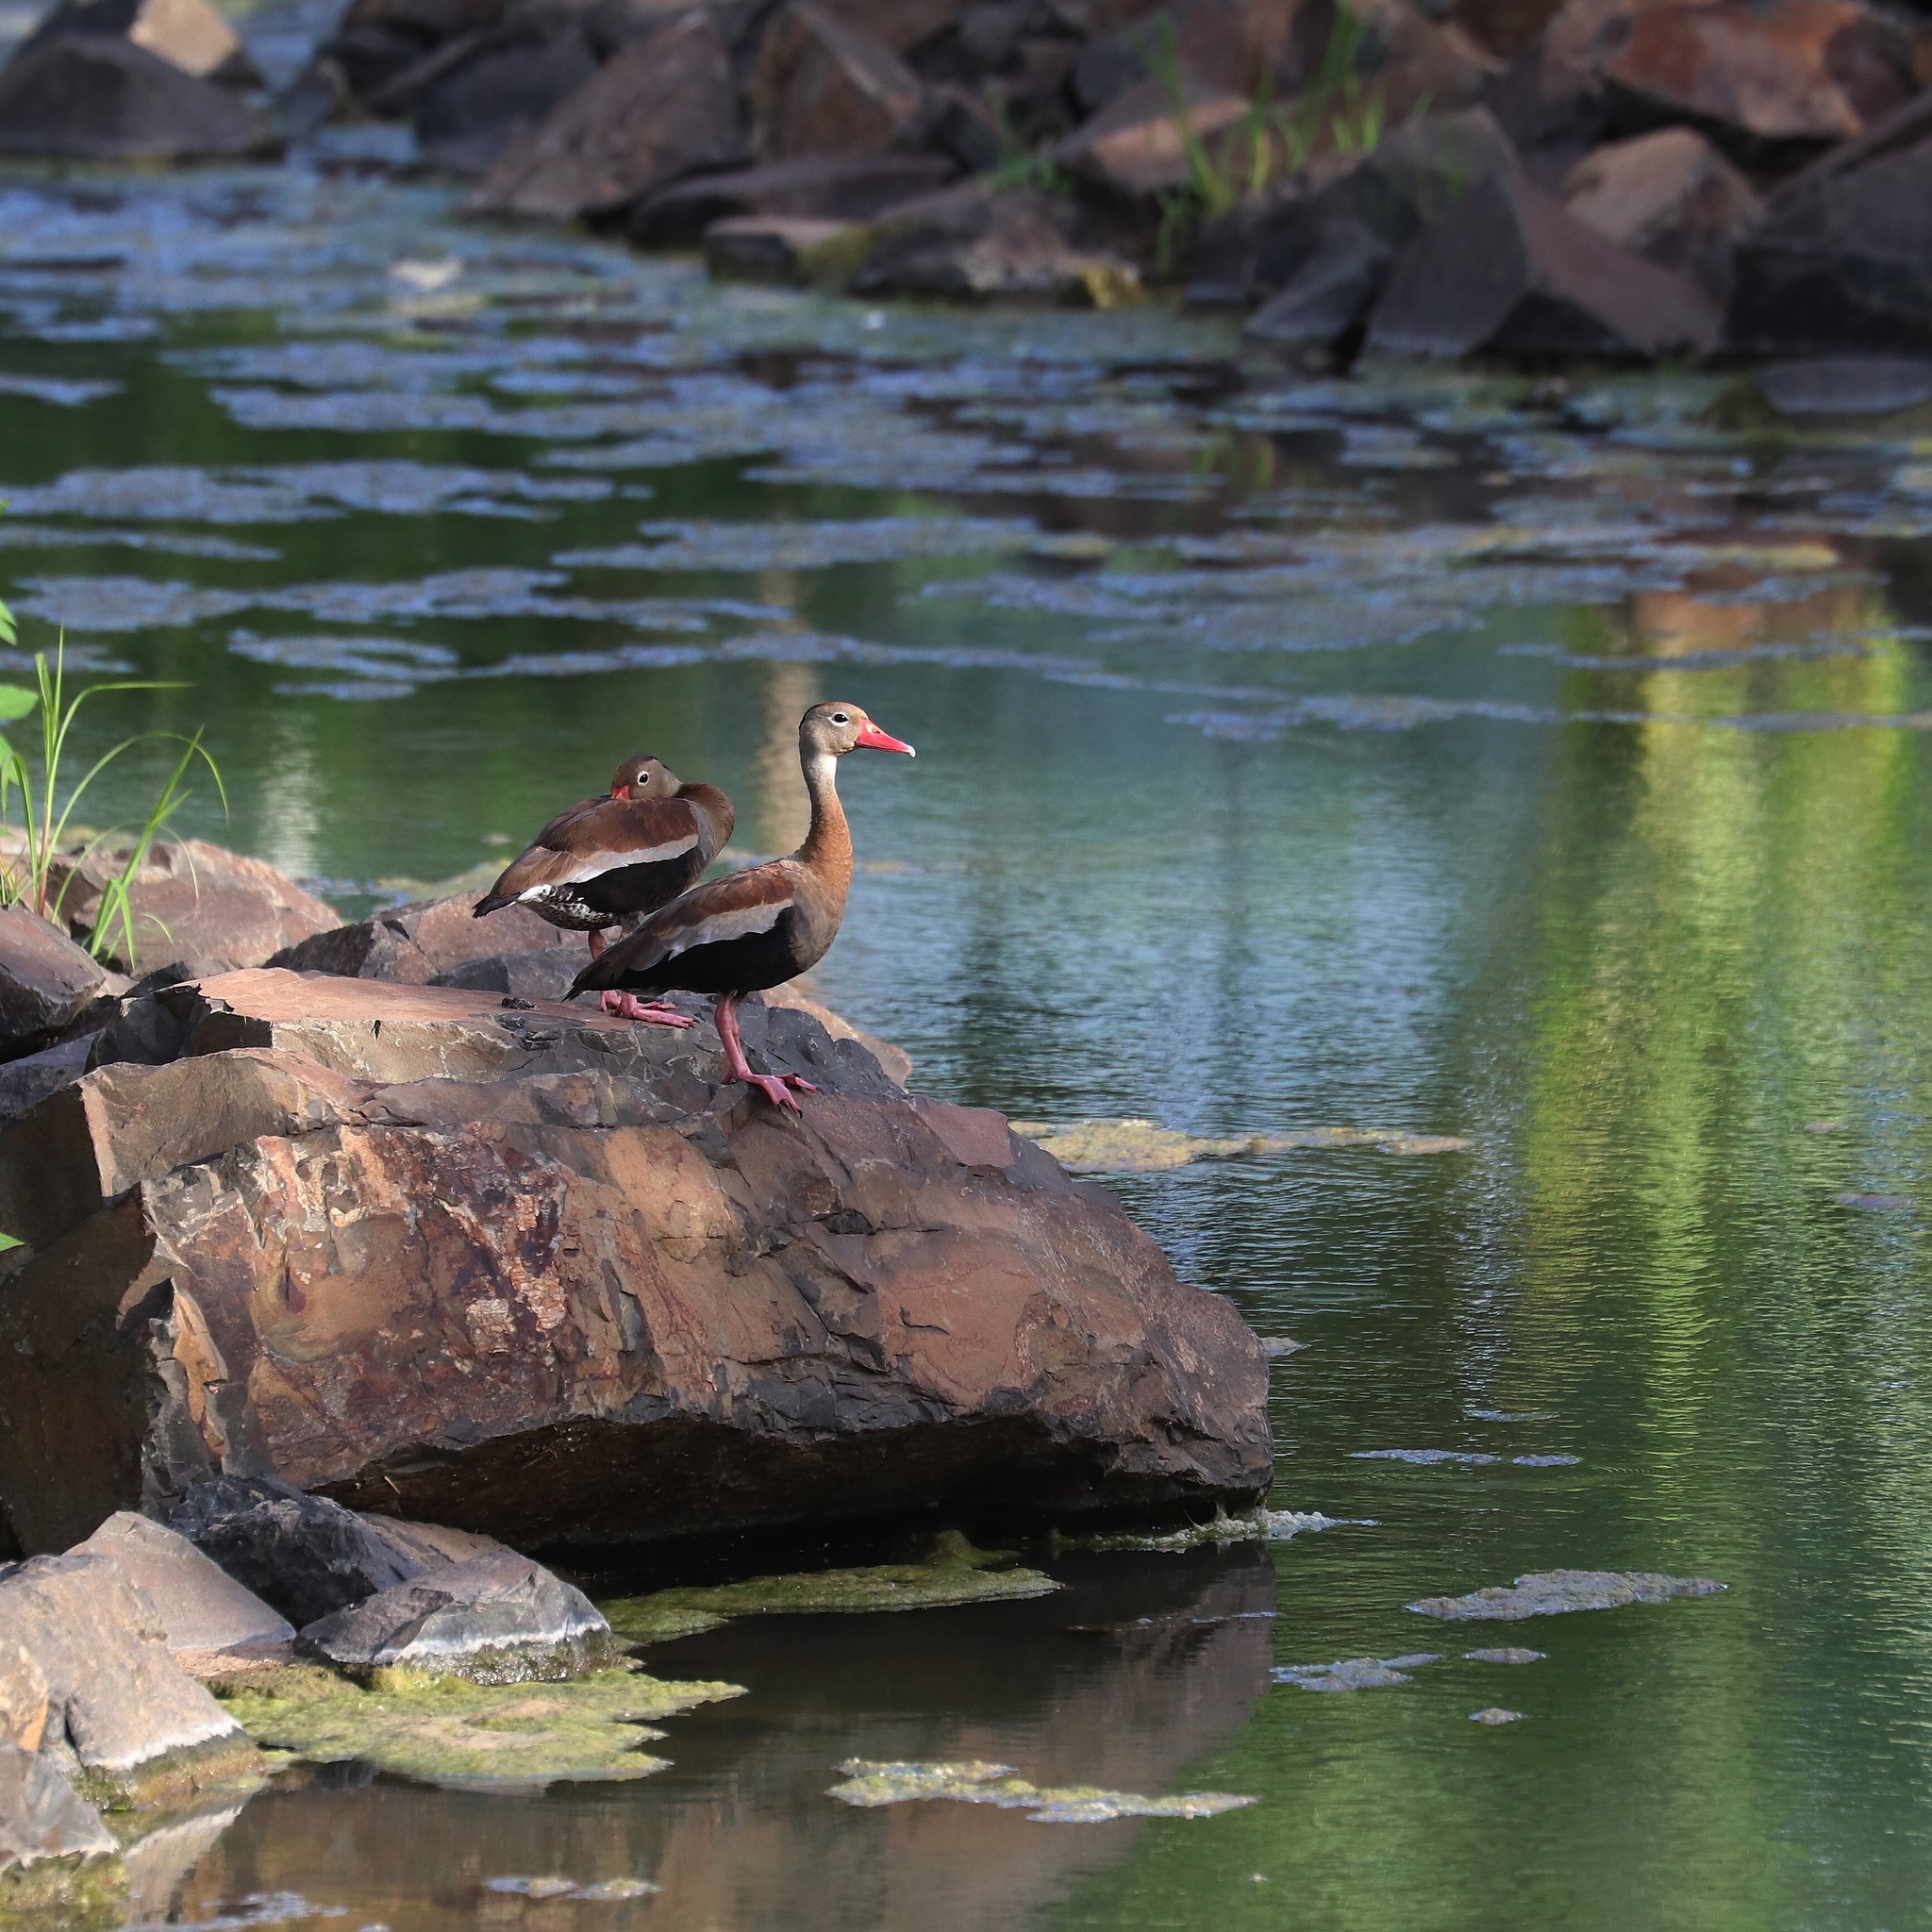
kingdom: Animalia
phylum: Chordata
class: Aves
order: Anseriformes
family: Anatidae
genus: Dendrocygna
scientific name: Dendrocygna autumnalis
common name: Black-bellied whistling duck
